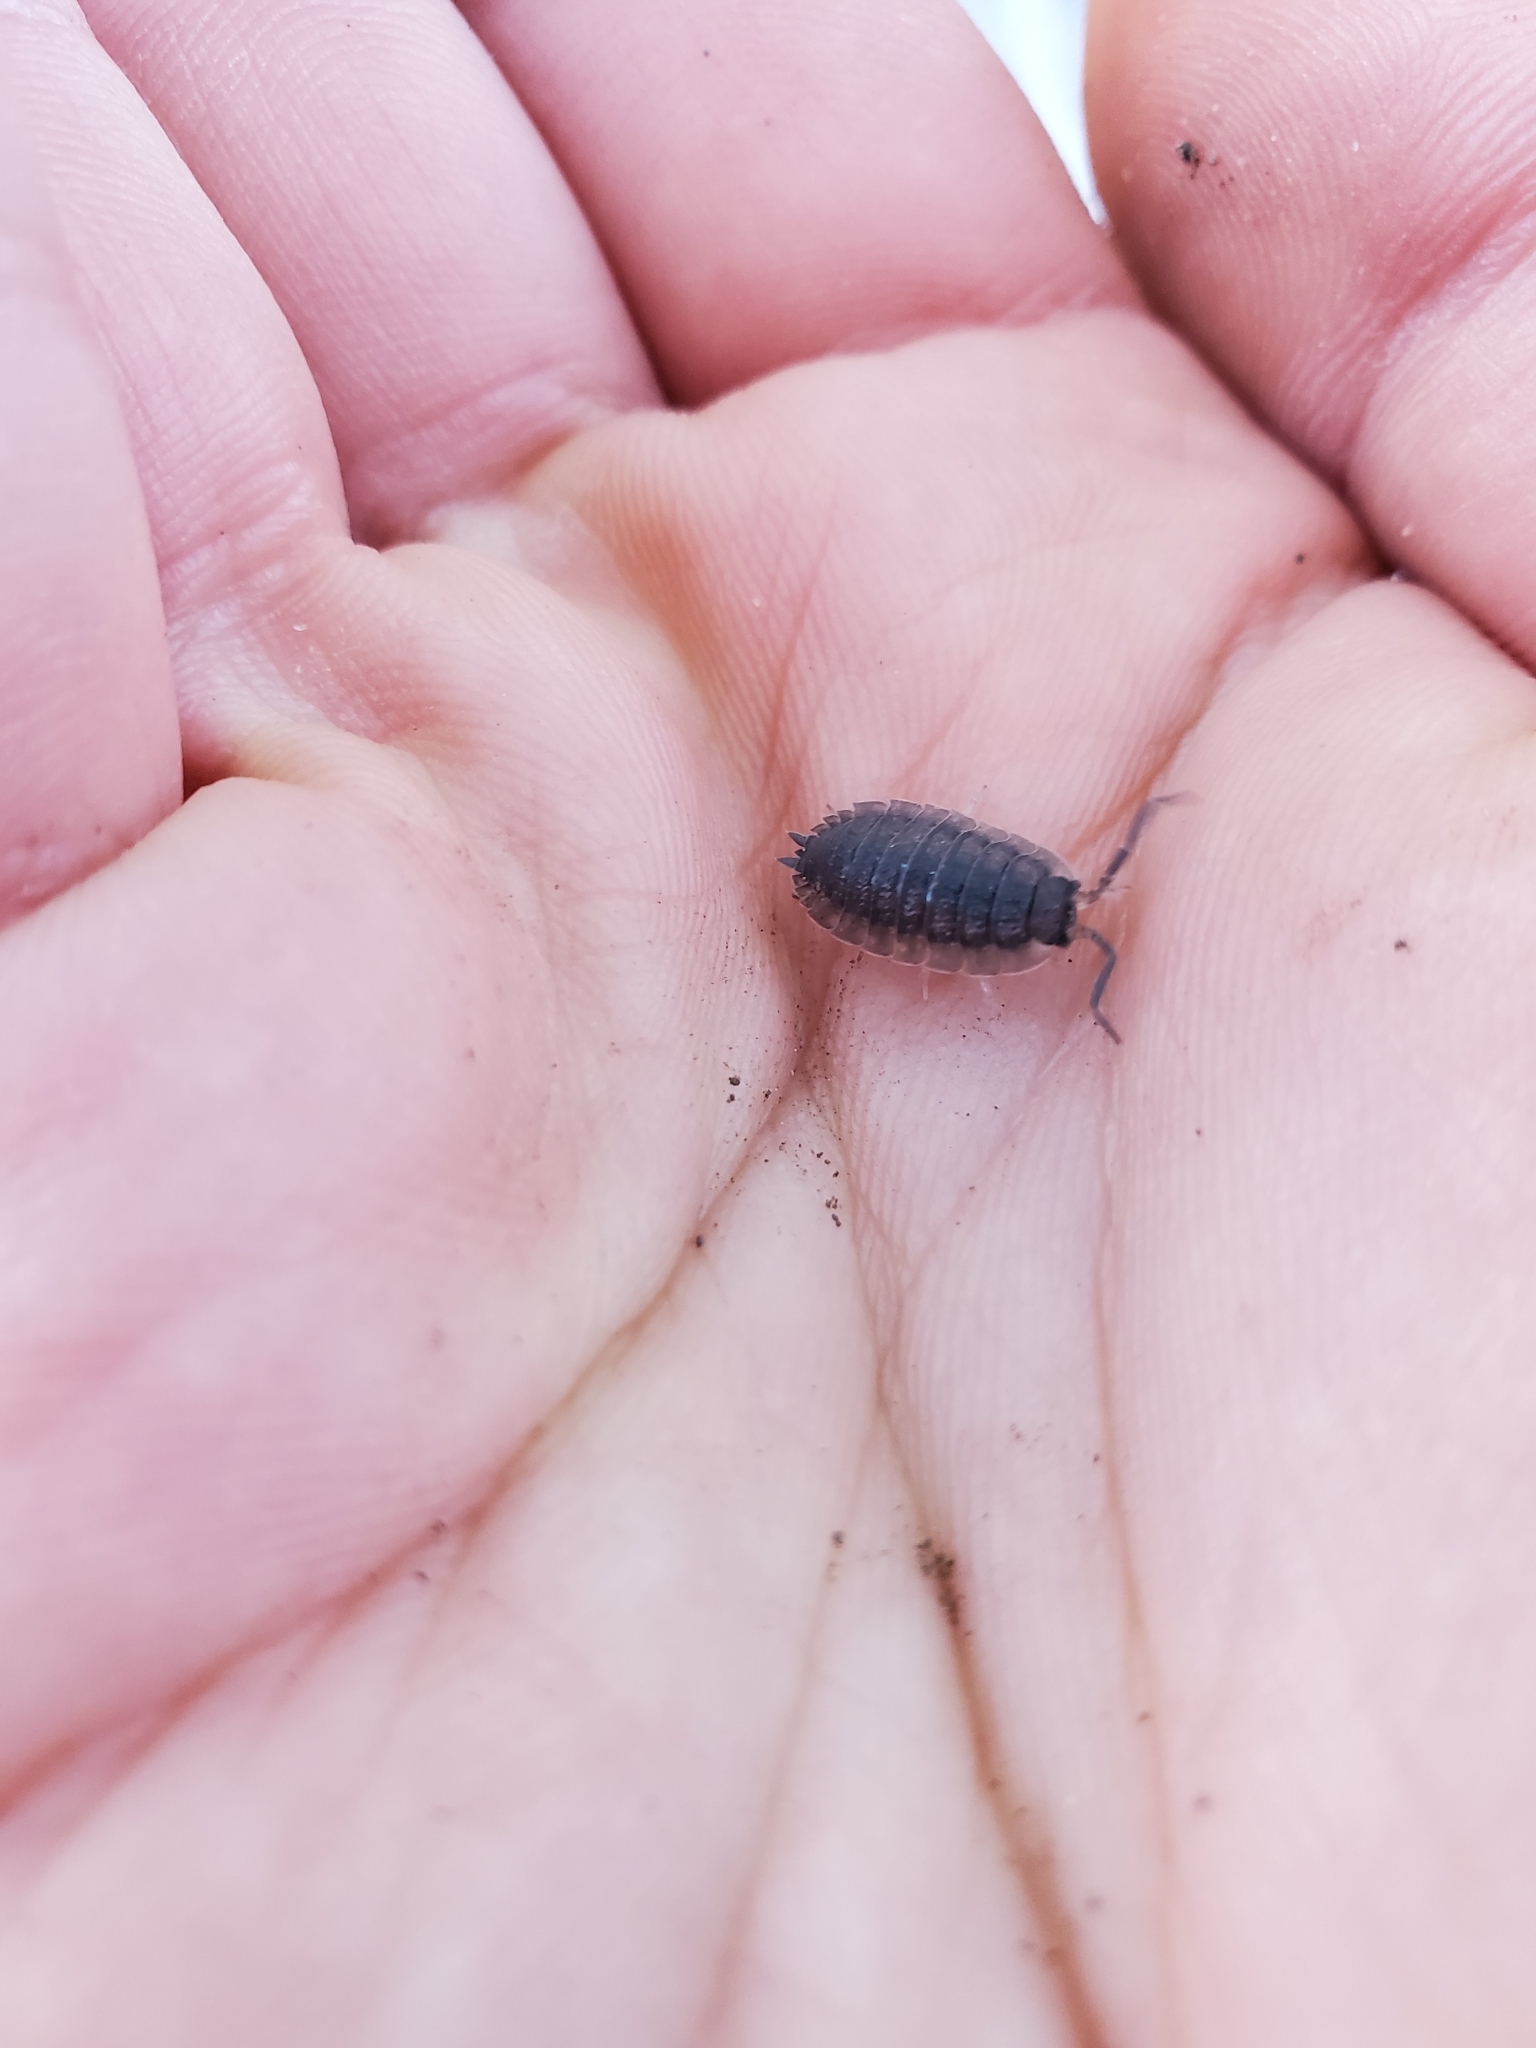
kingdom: Animalia
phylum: Arthropoda
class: Malacostraca
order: Isopoda
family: Porcellionidae
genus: Porcellio
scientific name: Porcellio scaber
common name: Common rough woodlouse
